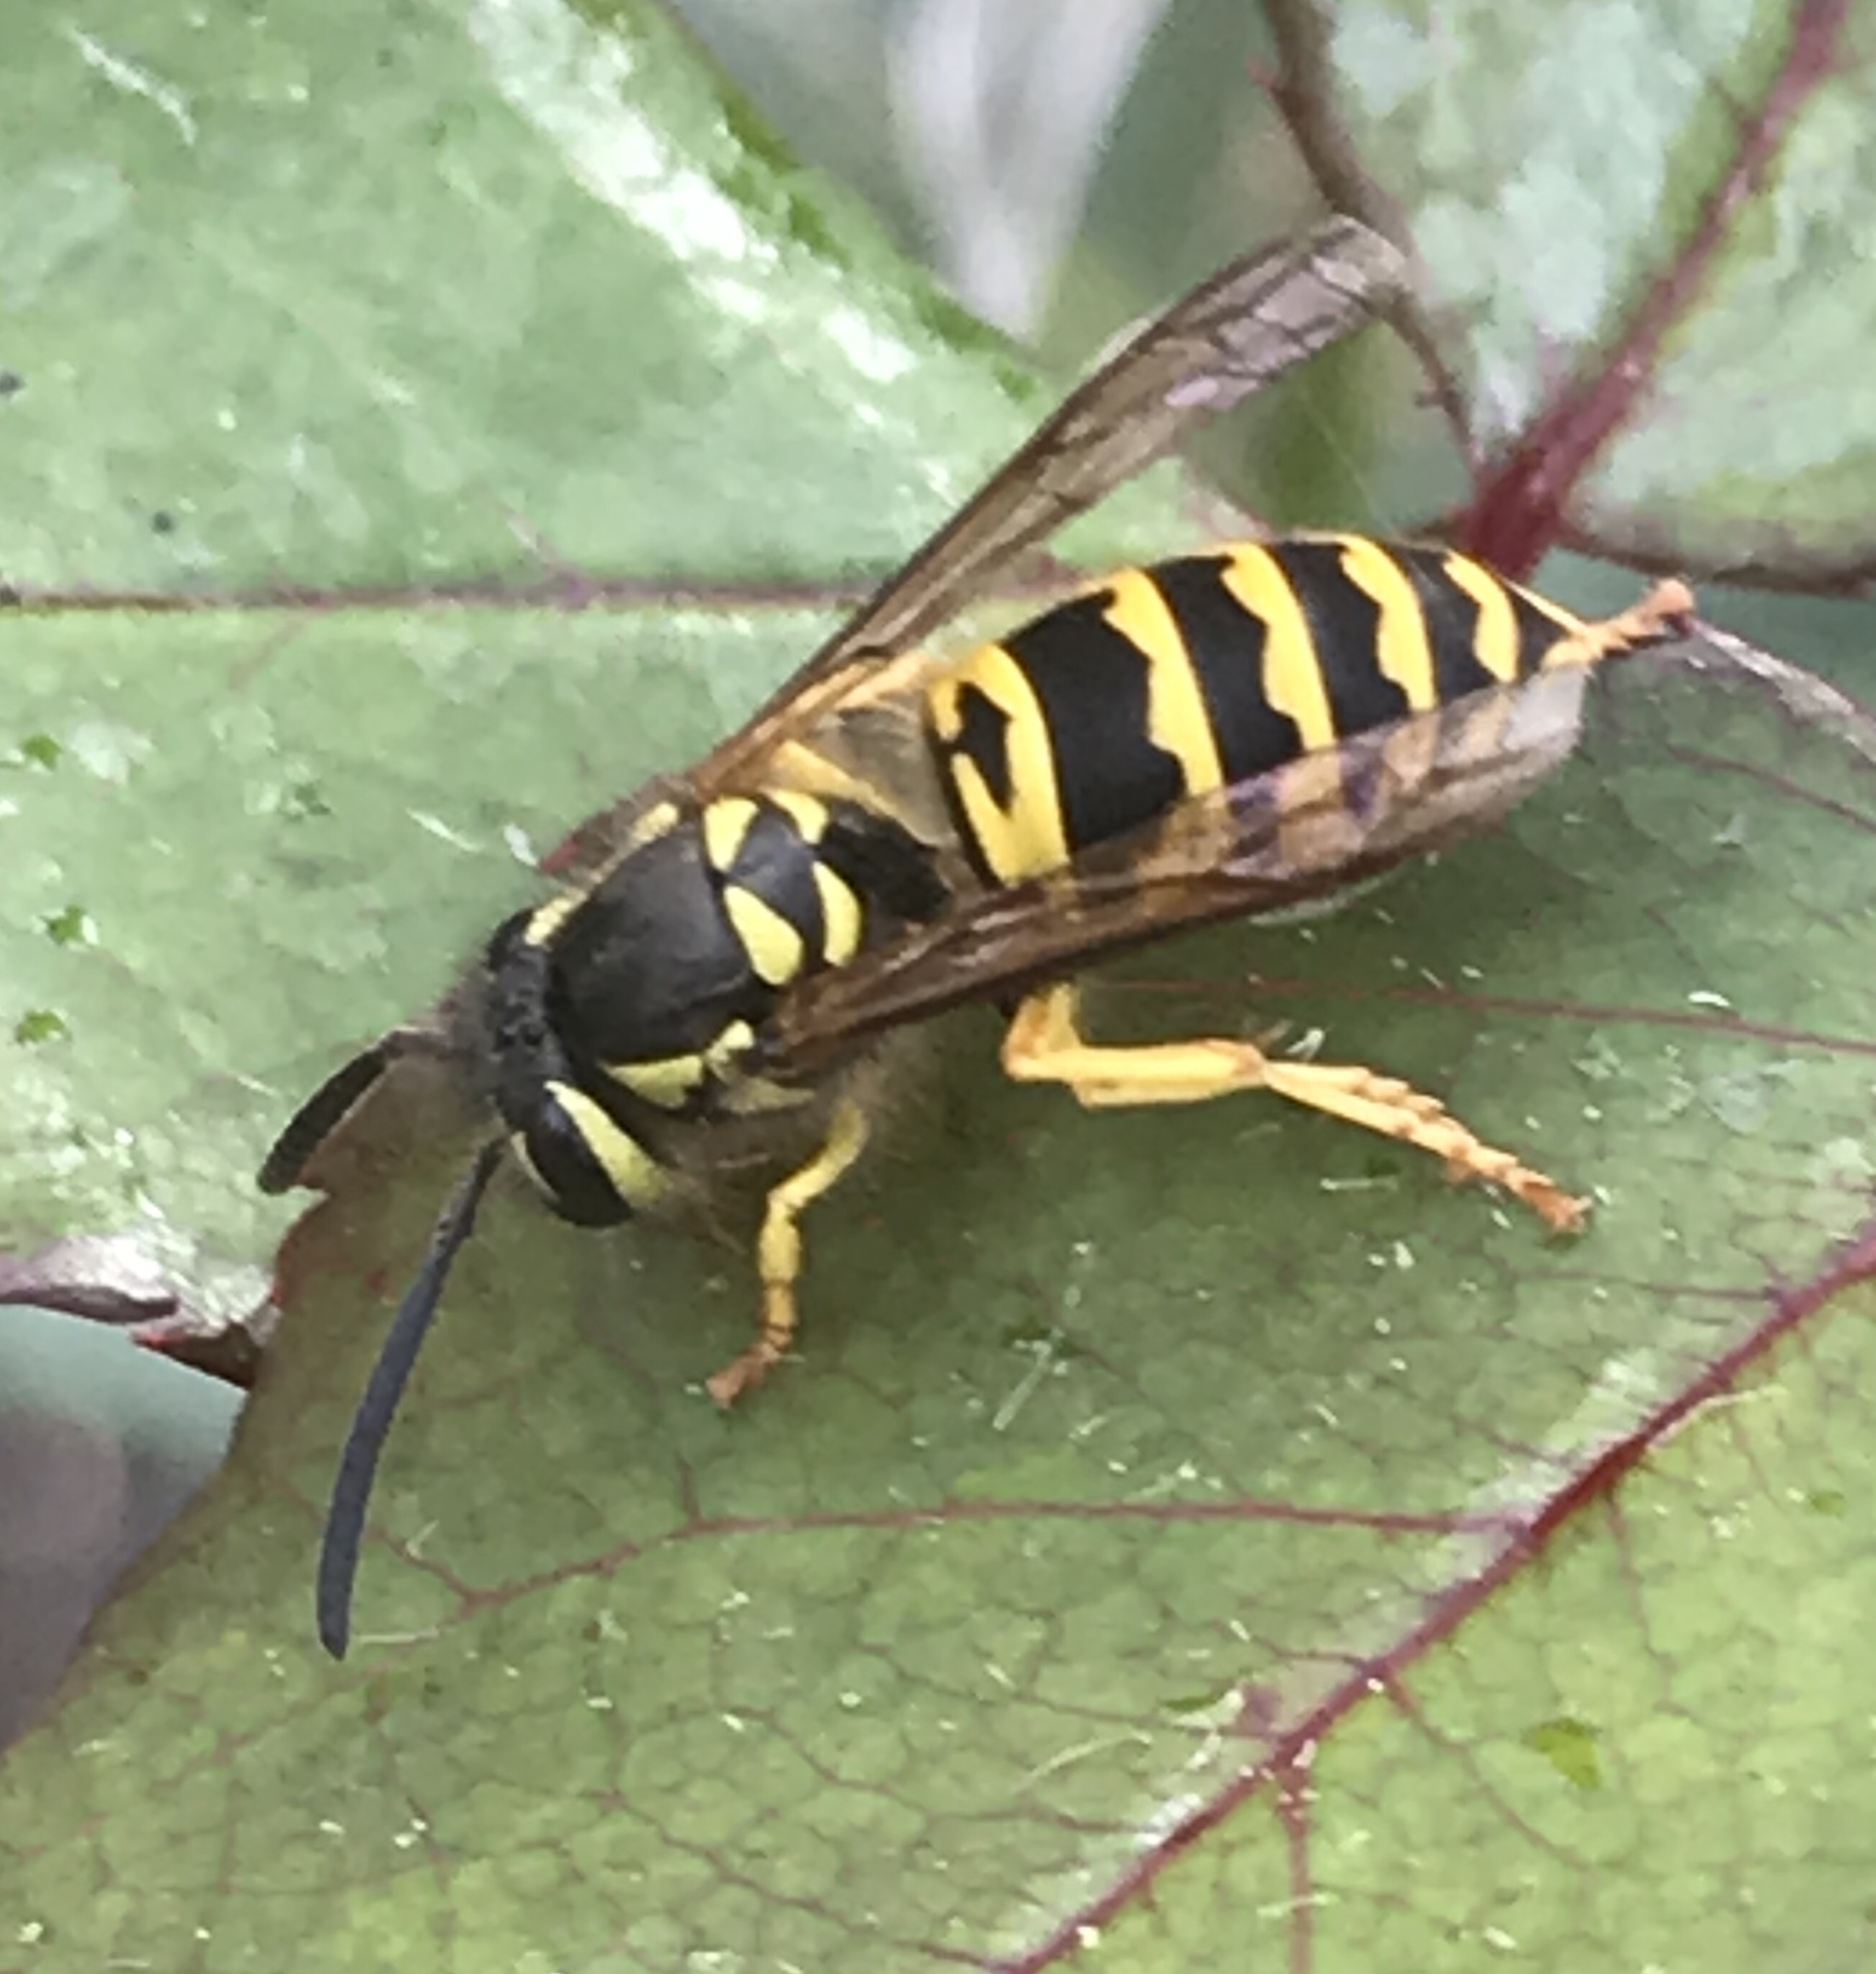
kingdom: Animalia
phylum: Arthropoda
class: Insecta
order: Hymenoptera
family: Vespidae
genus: Vespula
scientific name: Vespula maculifrons
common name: Eastern yellowjacket
